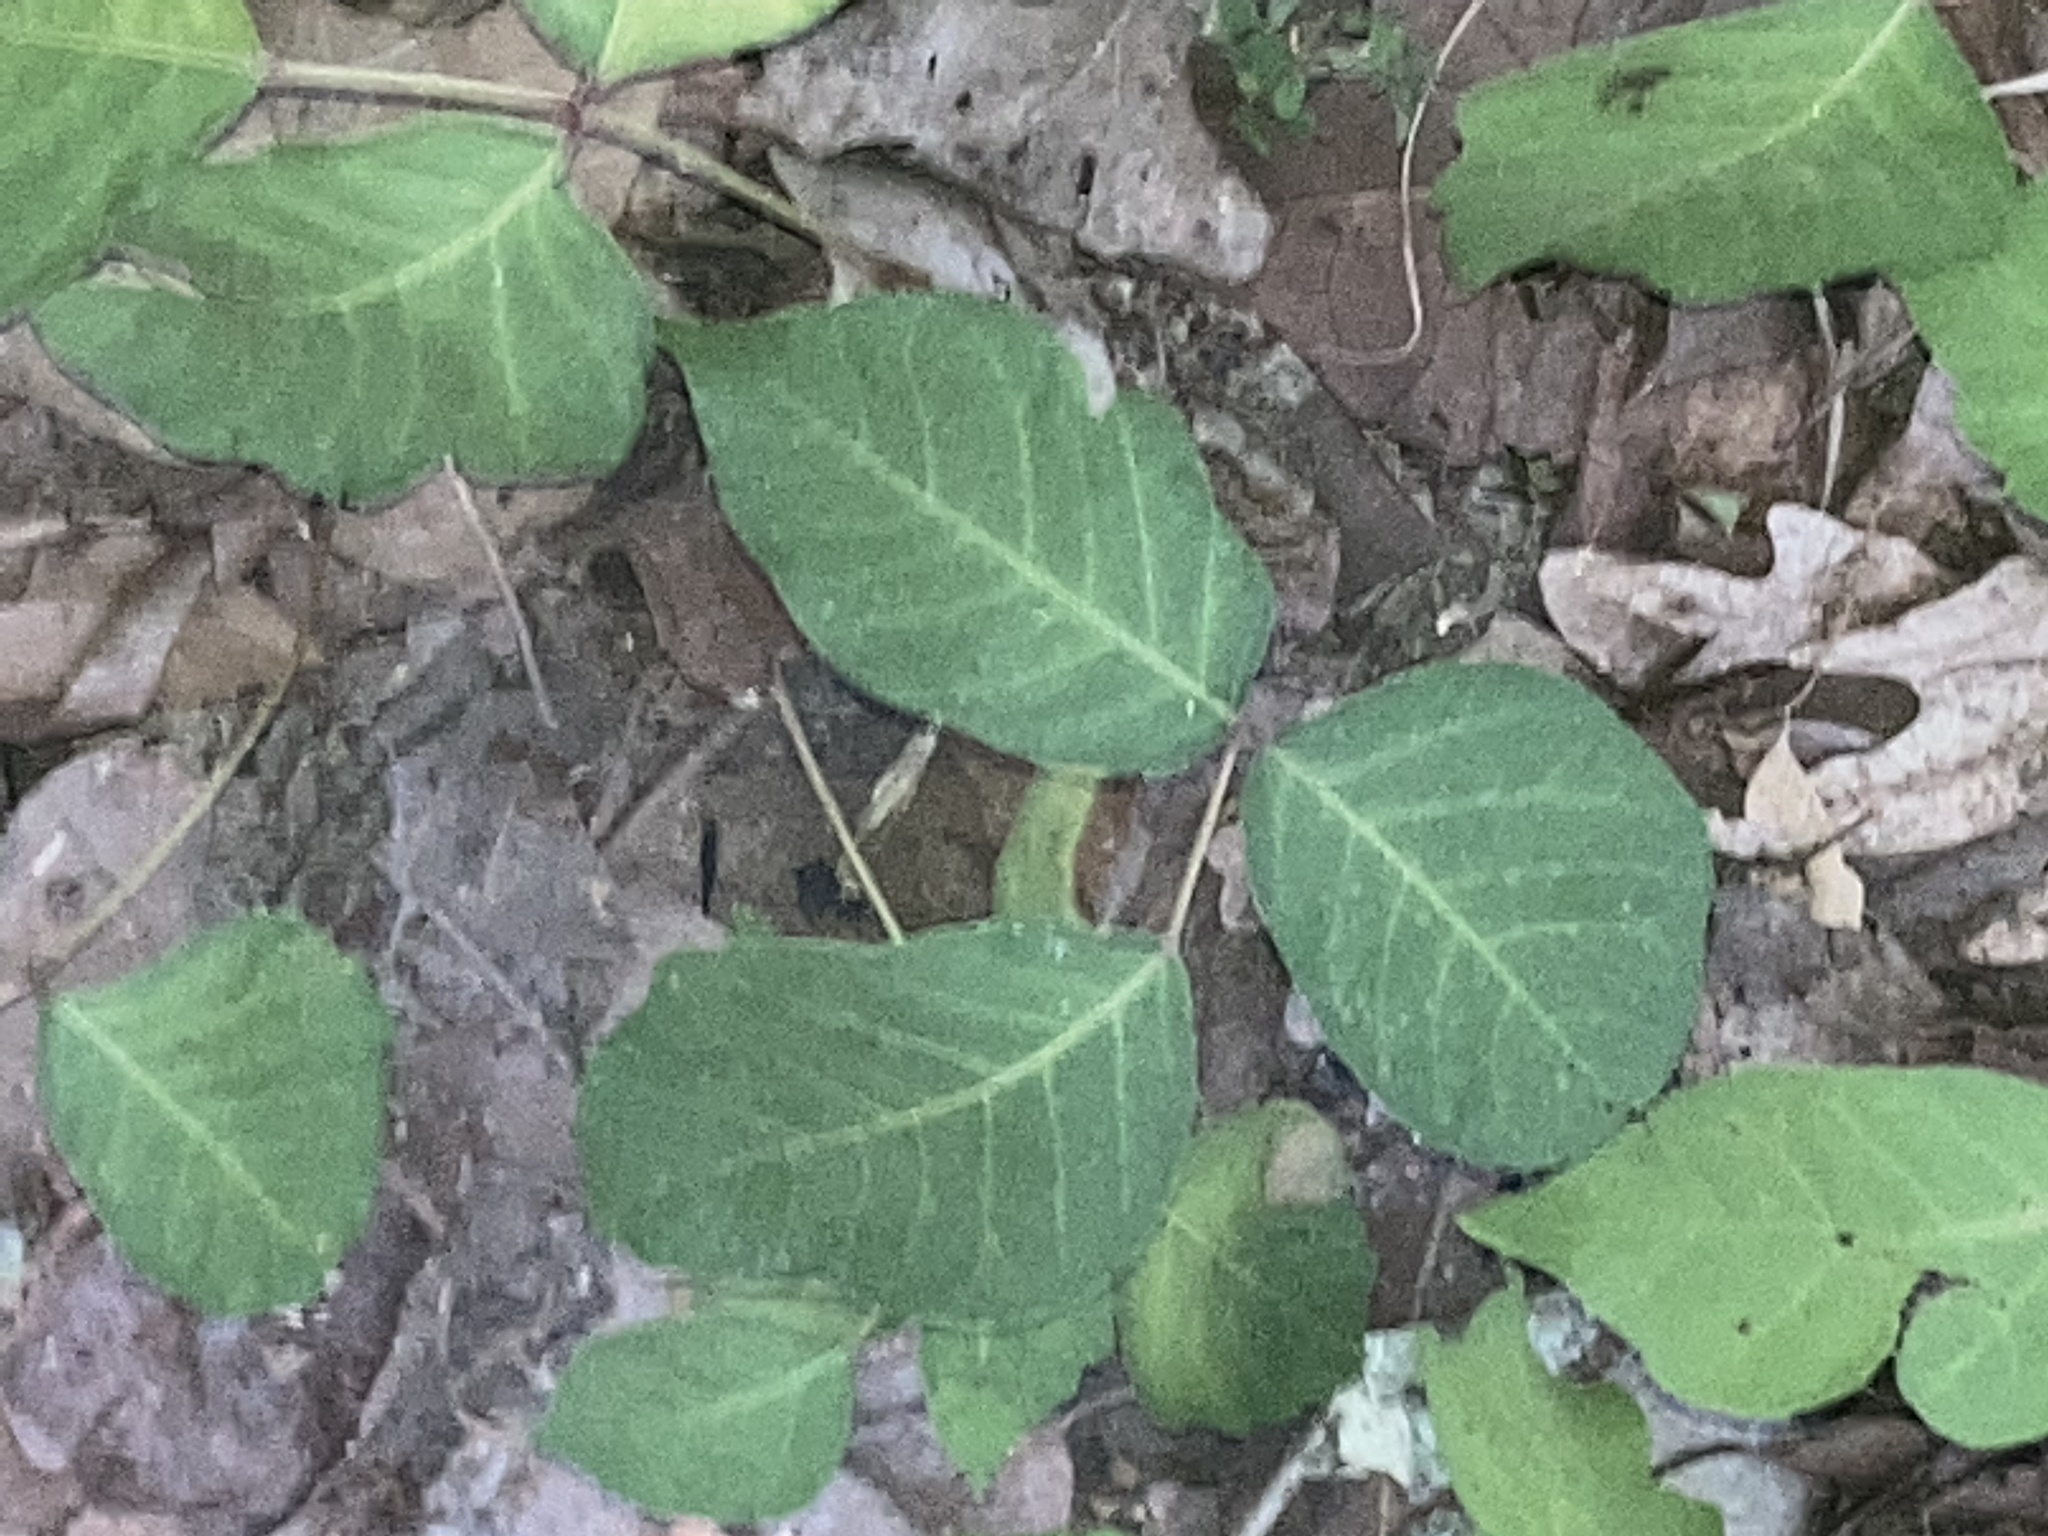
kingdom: Plantae
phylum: Tracheophyta
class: Magnoliopsida
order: Sapindales
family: Anacardiaceae
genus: Toxicodendron
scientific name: Toxicodendron radicans
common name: Poison ivy
